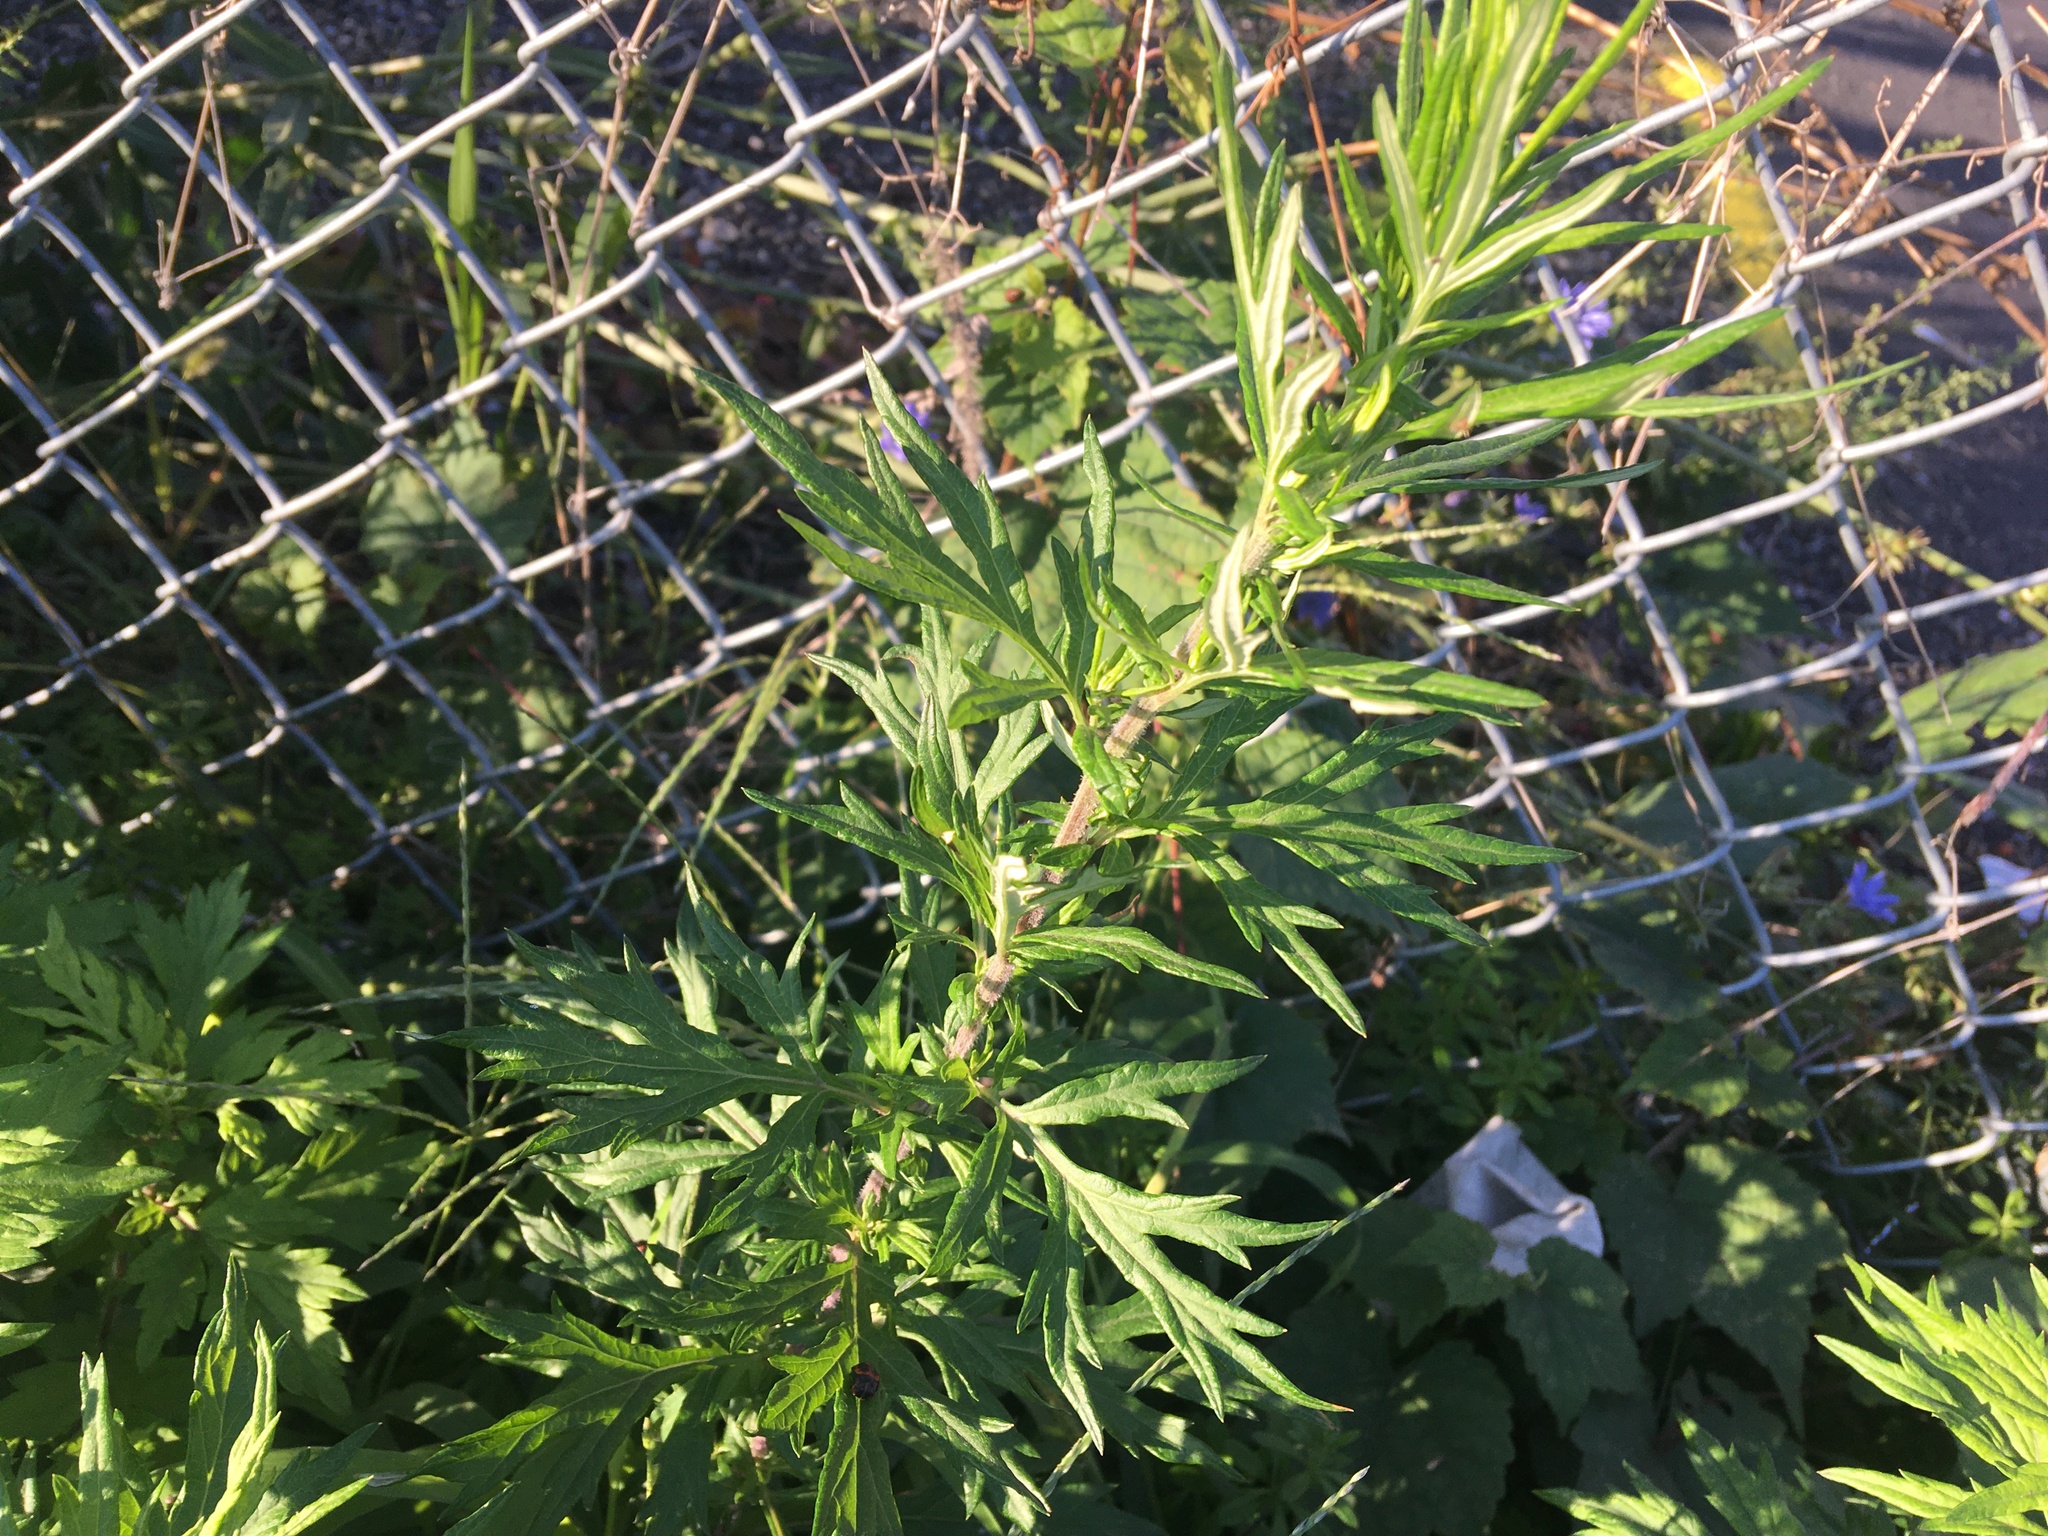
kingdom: Plantae
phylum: Tracheophyta
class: Magnoliopsida
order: Asterales
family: Asteraceae
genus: Artemisia
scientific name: Artemisia vulgaris
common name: Mugwort
